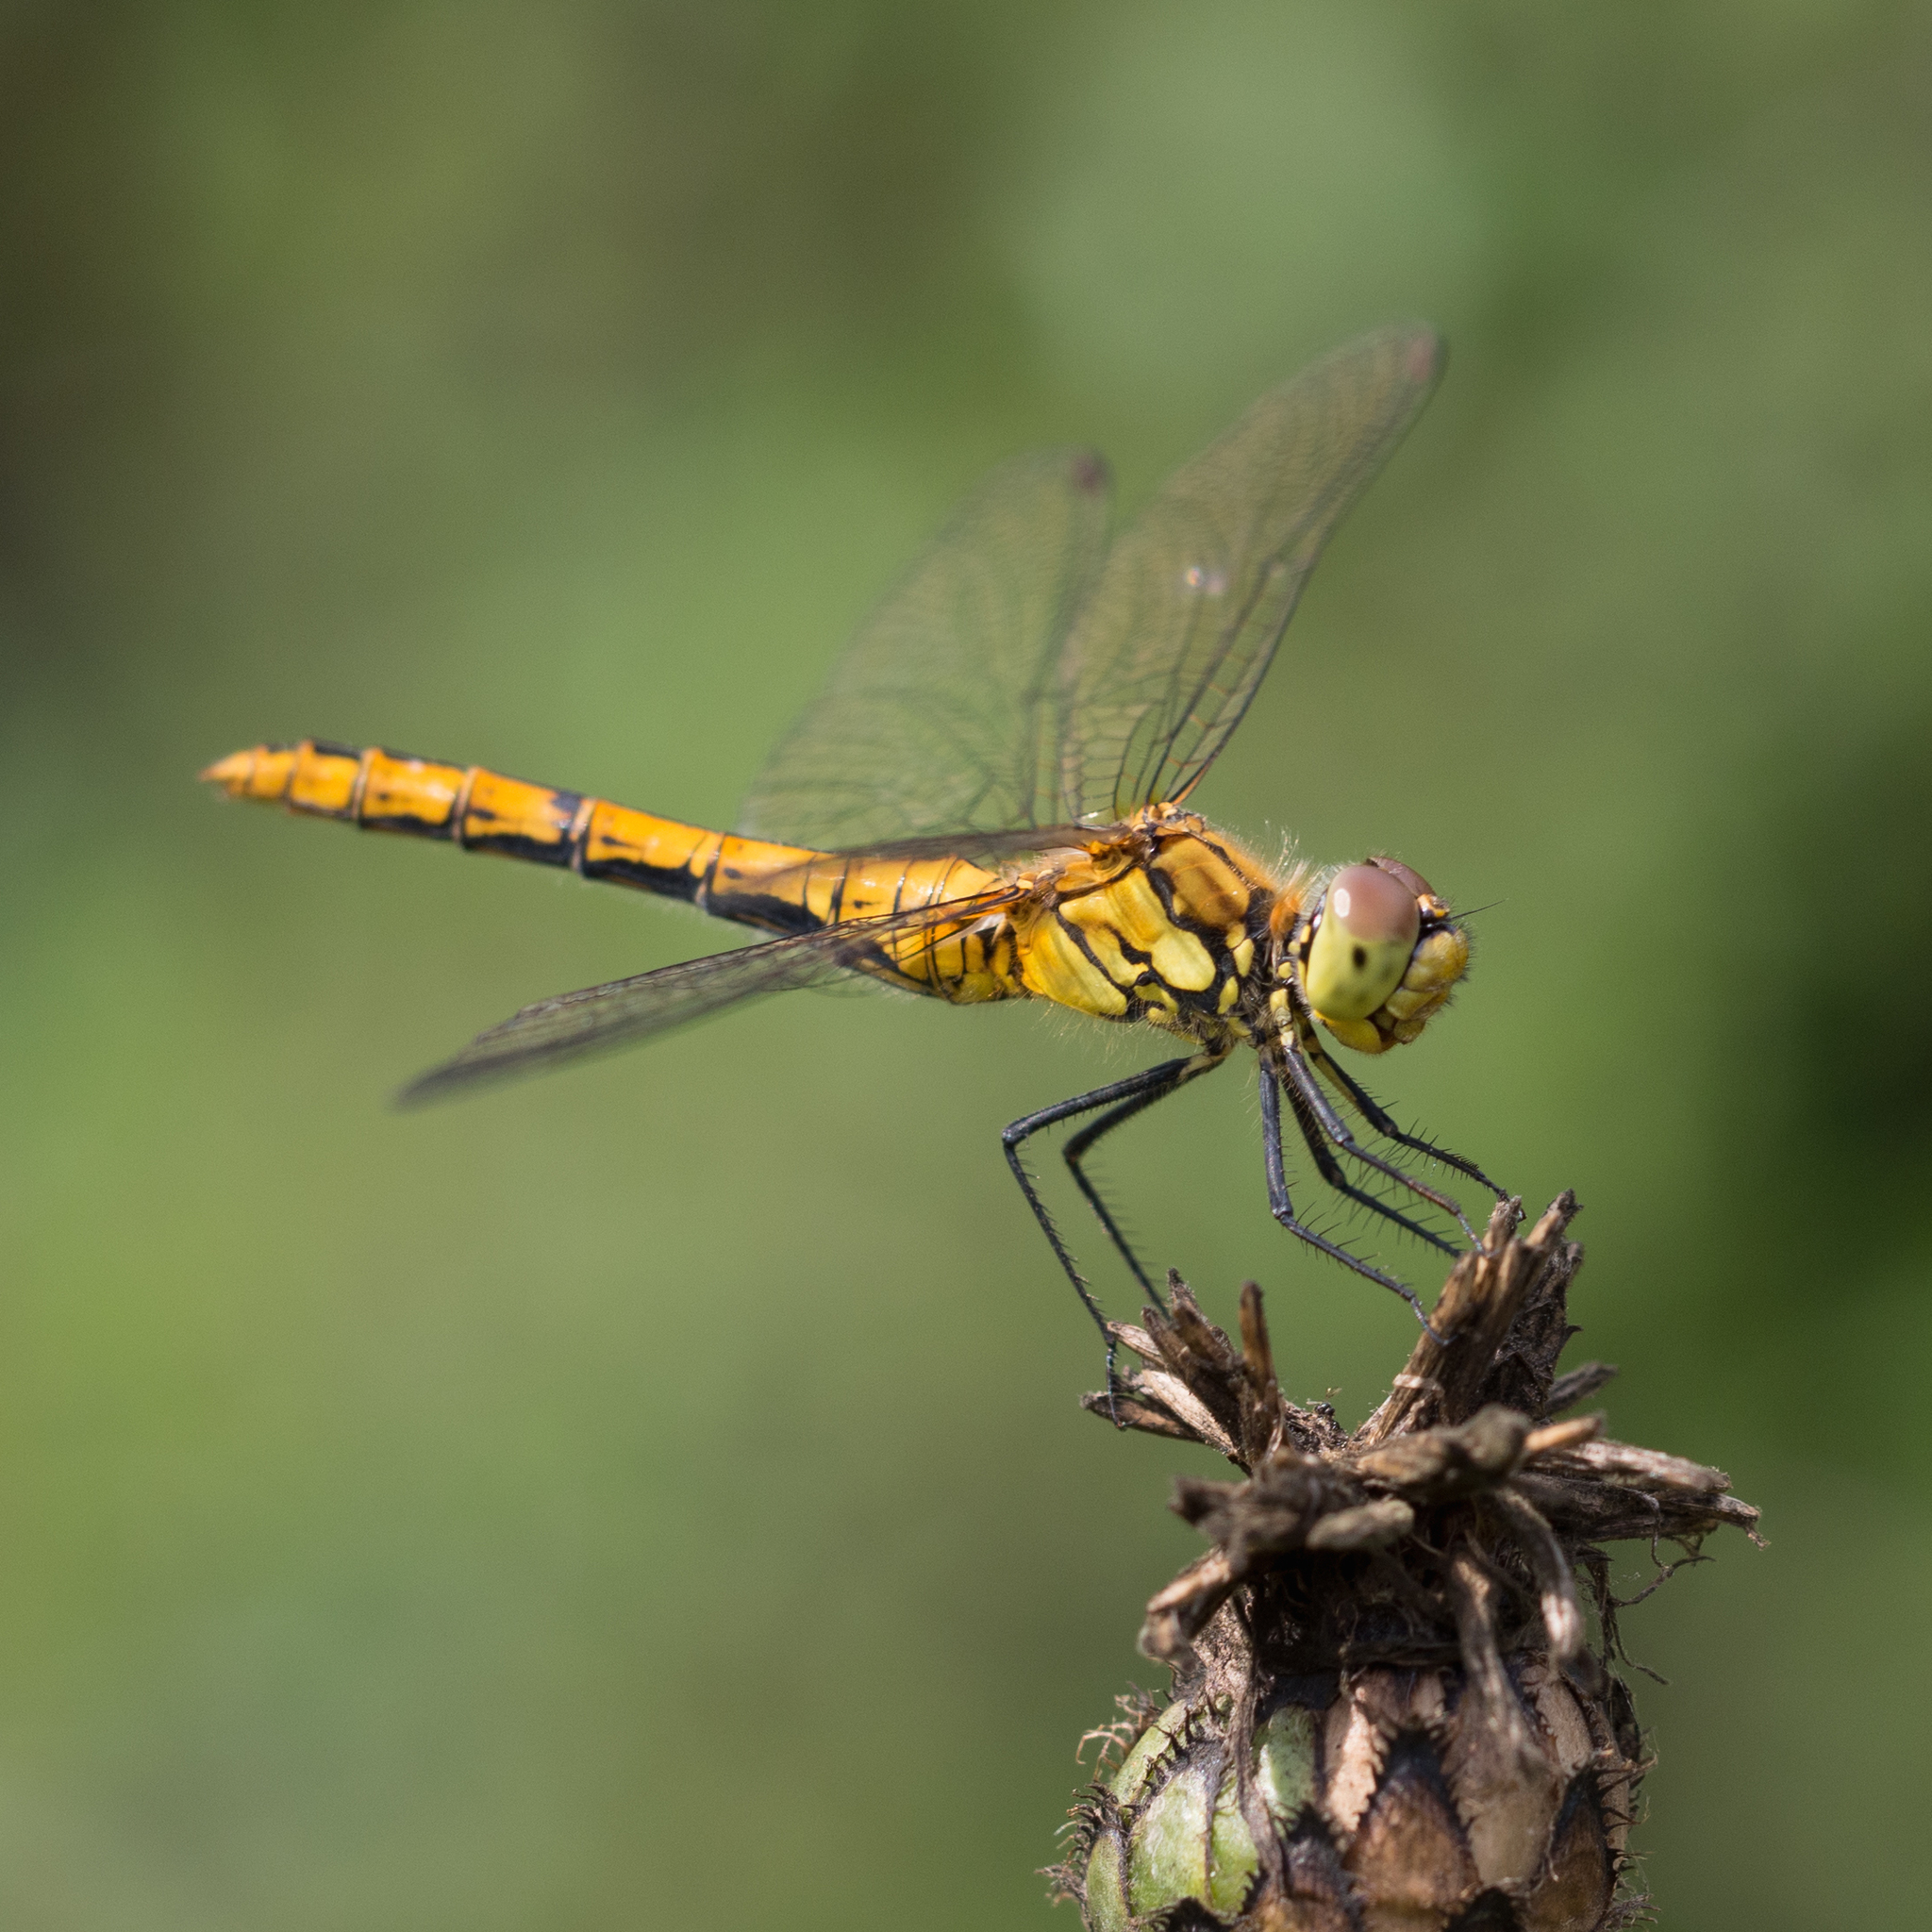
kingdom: Animalia
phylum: Arthropoda
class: Insecta
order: Odonata
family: Libellulidae
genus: Sympetrum
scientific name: Sympetrum sanguineum
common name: Ruddy darter
